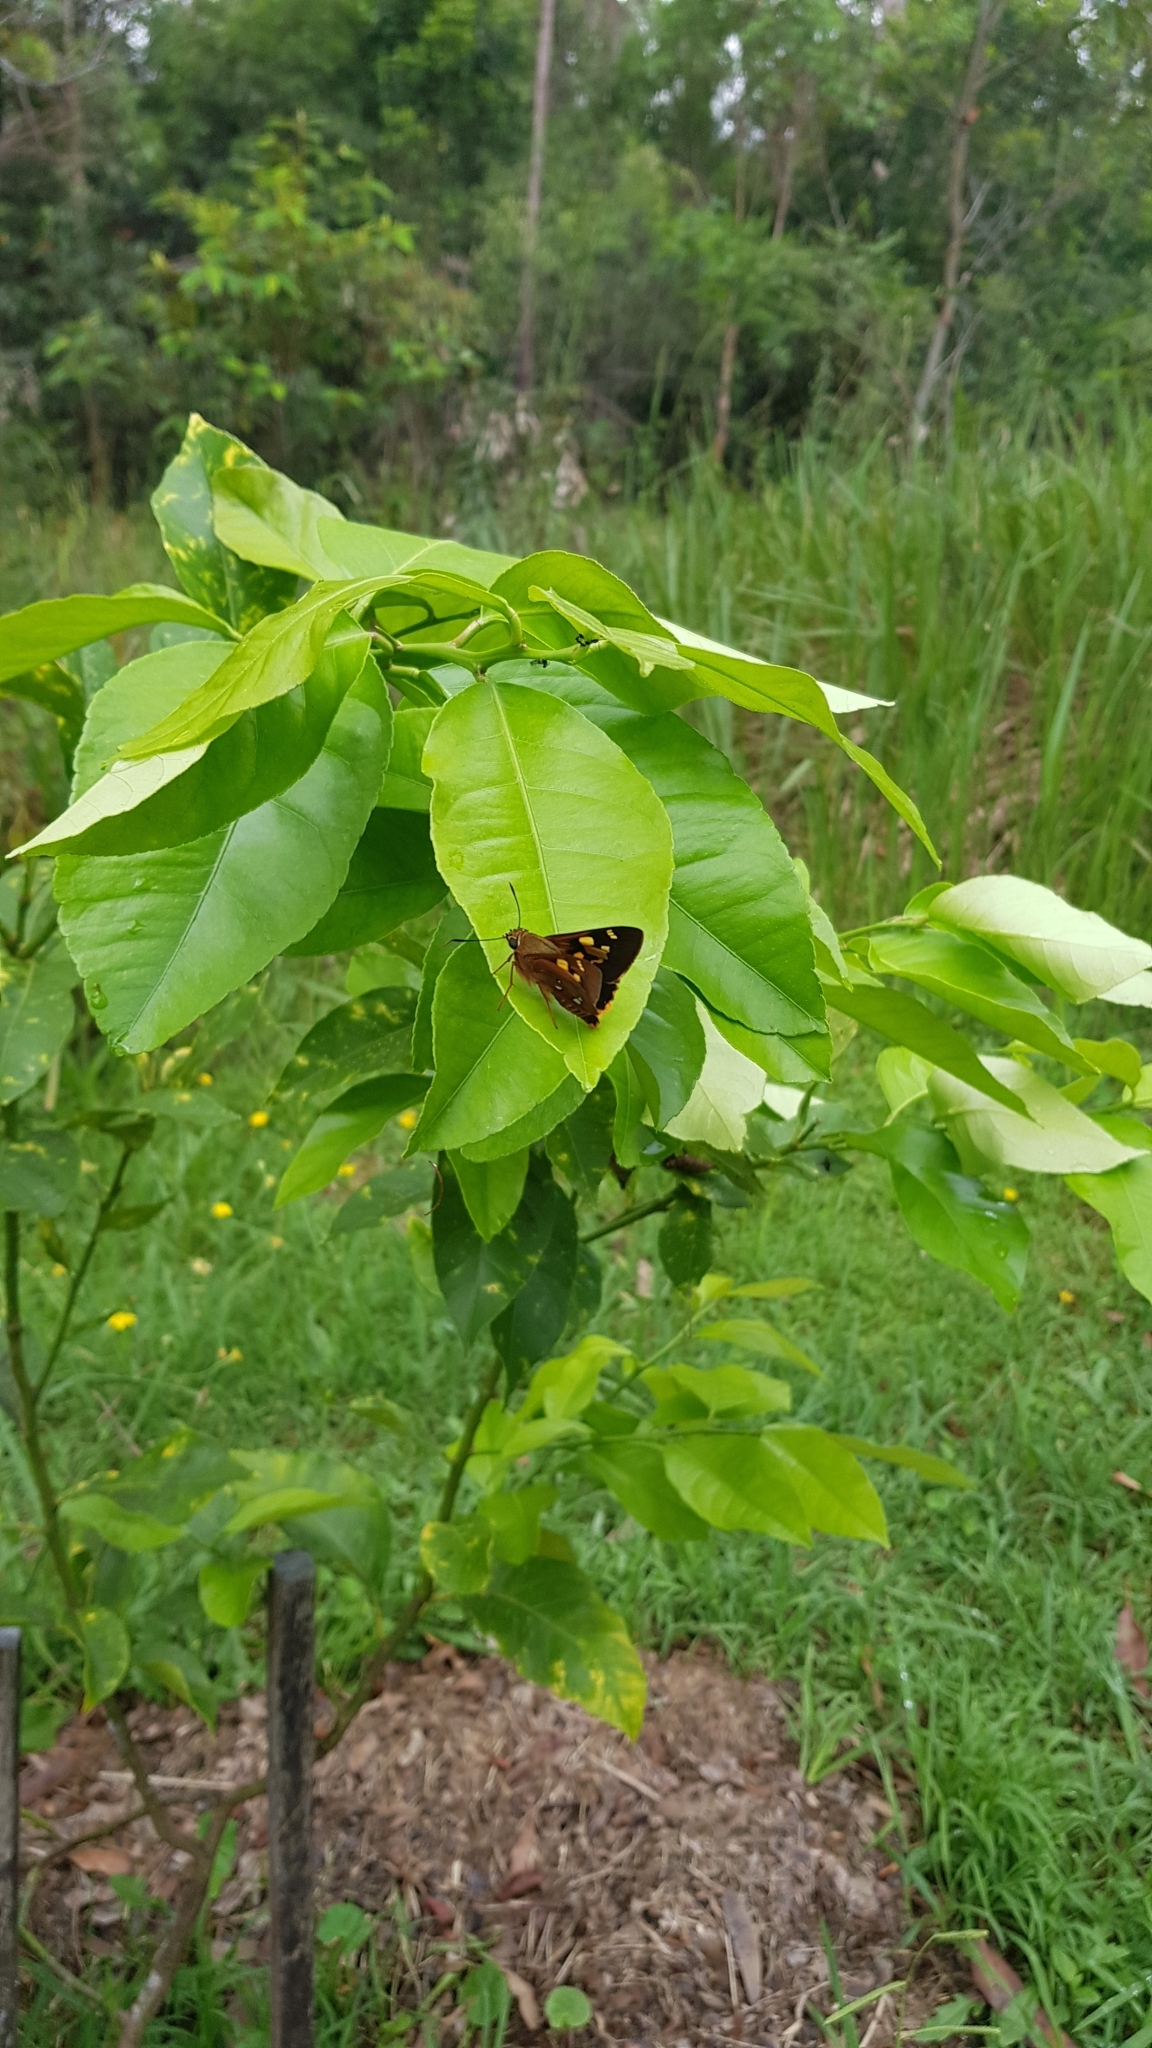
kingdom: Animalia
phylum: Arthropoda
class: Insecta
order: Lepidoptera
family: Hesperiidae
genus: Trapezites
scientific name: Trapezites symmomus
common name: Splendid ochre
